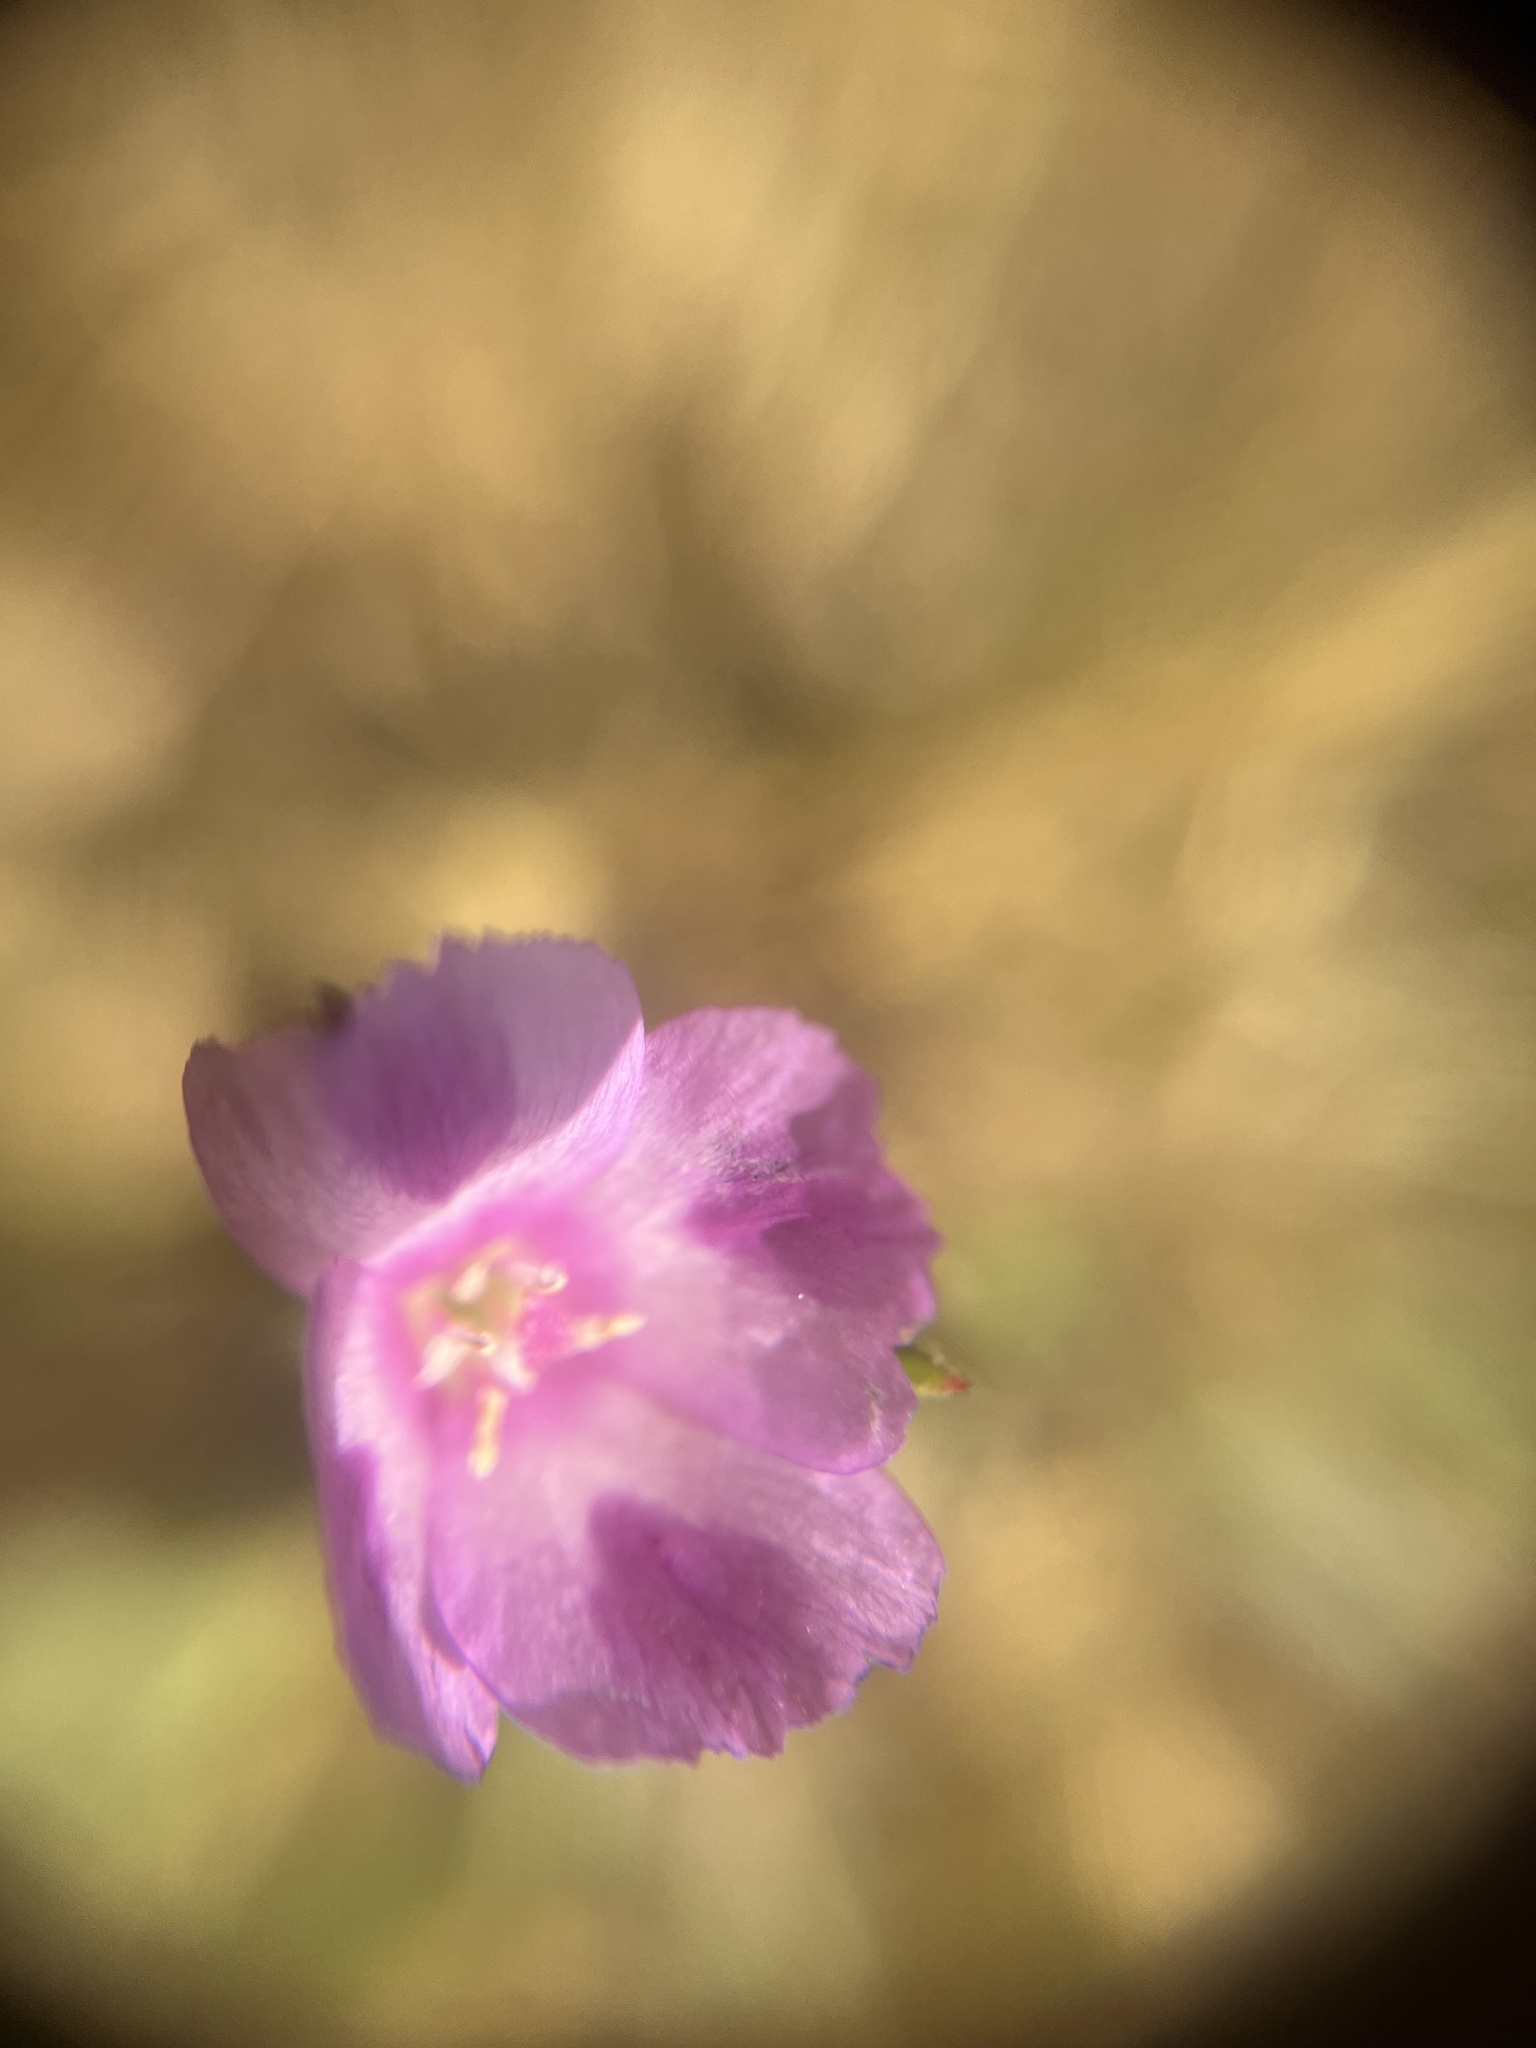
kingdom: Plantae
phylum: Tracheophyta
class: Magnoliopsida
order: Myrtales
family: Onagraceae
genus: Clarkia
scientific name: Clarkia purpurea
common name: Purple clarkia
